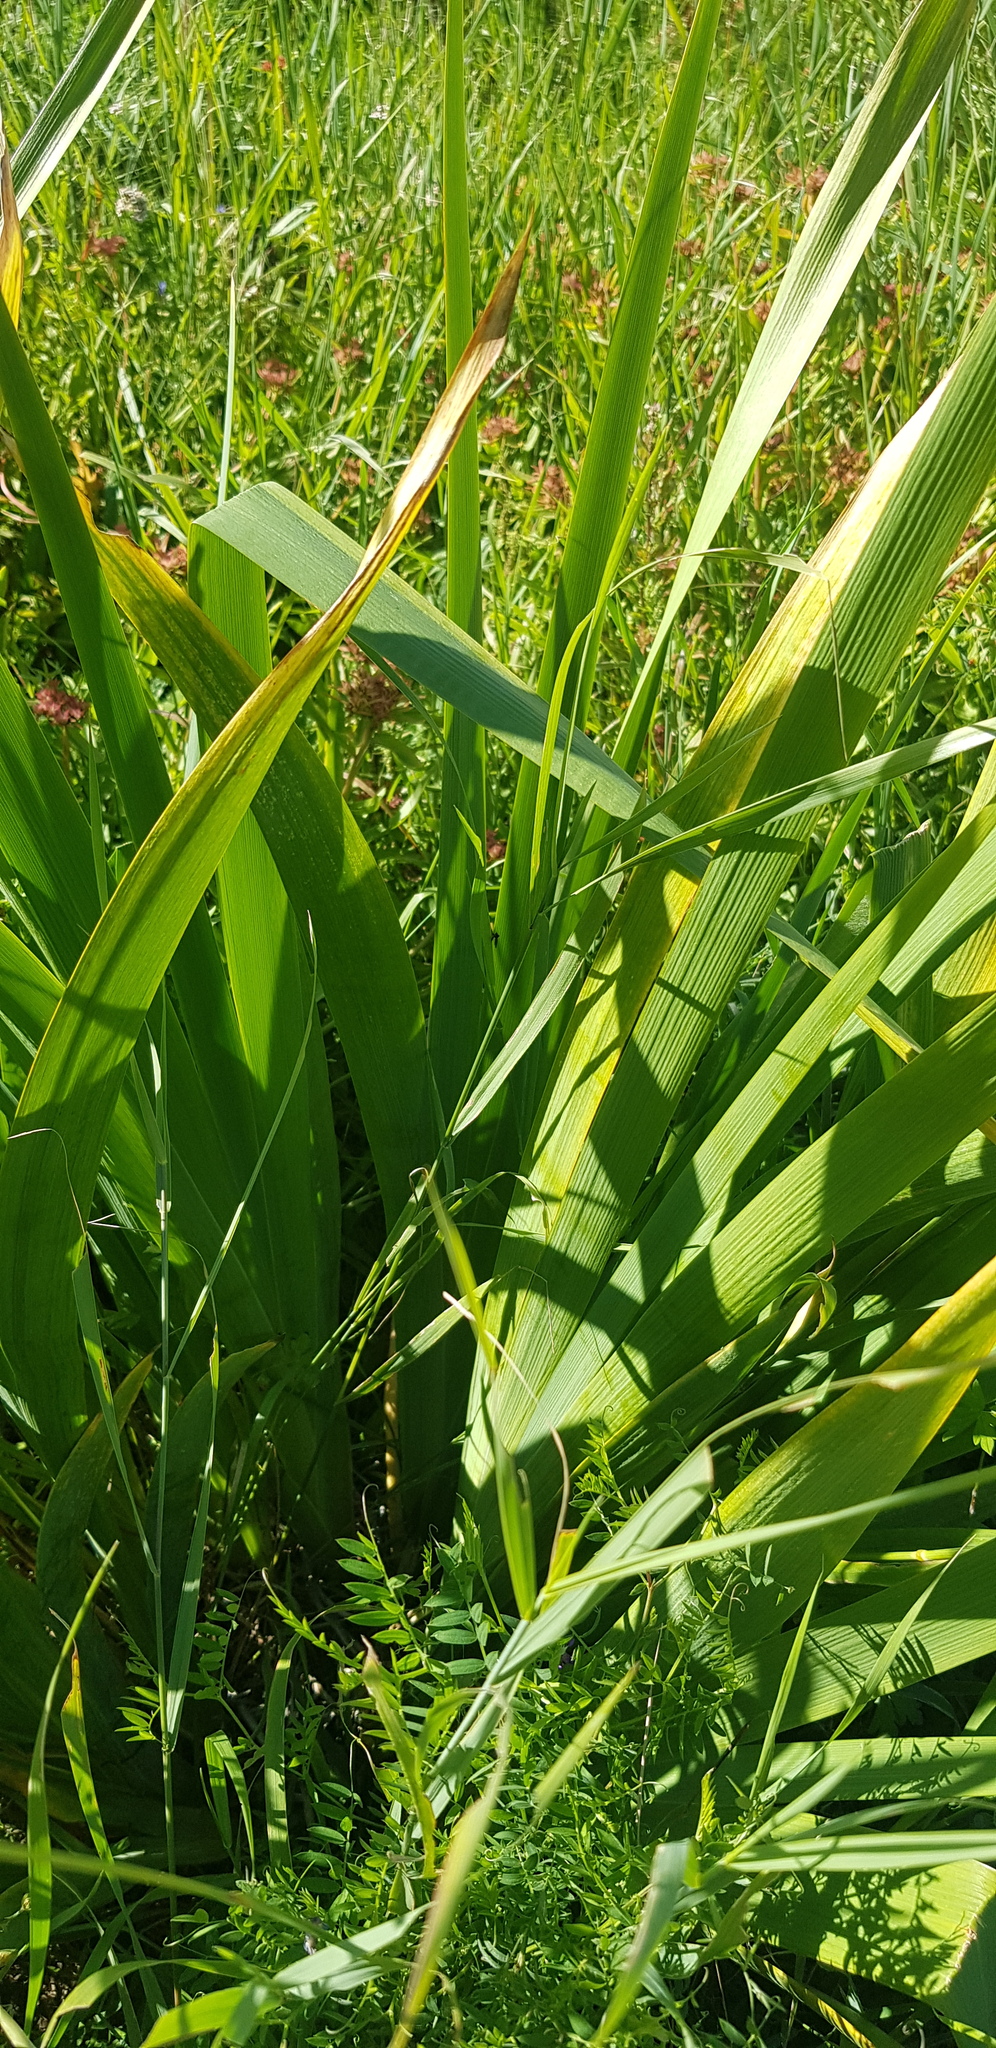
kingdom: Plantae
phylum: Tracheophyta
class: Liliopsida
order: Asparagales
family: Iridaceae
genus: Iris
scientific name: Iris dichotoma
